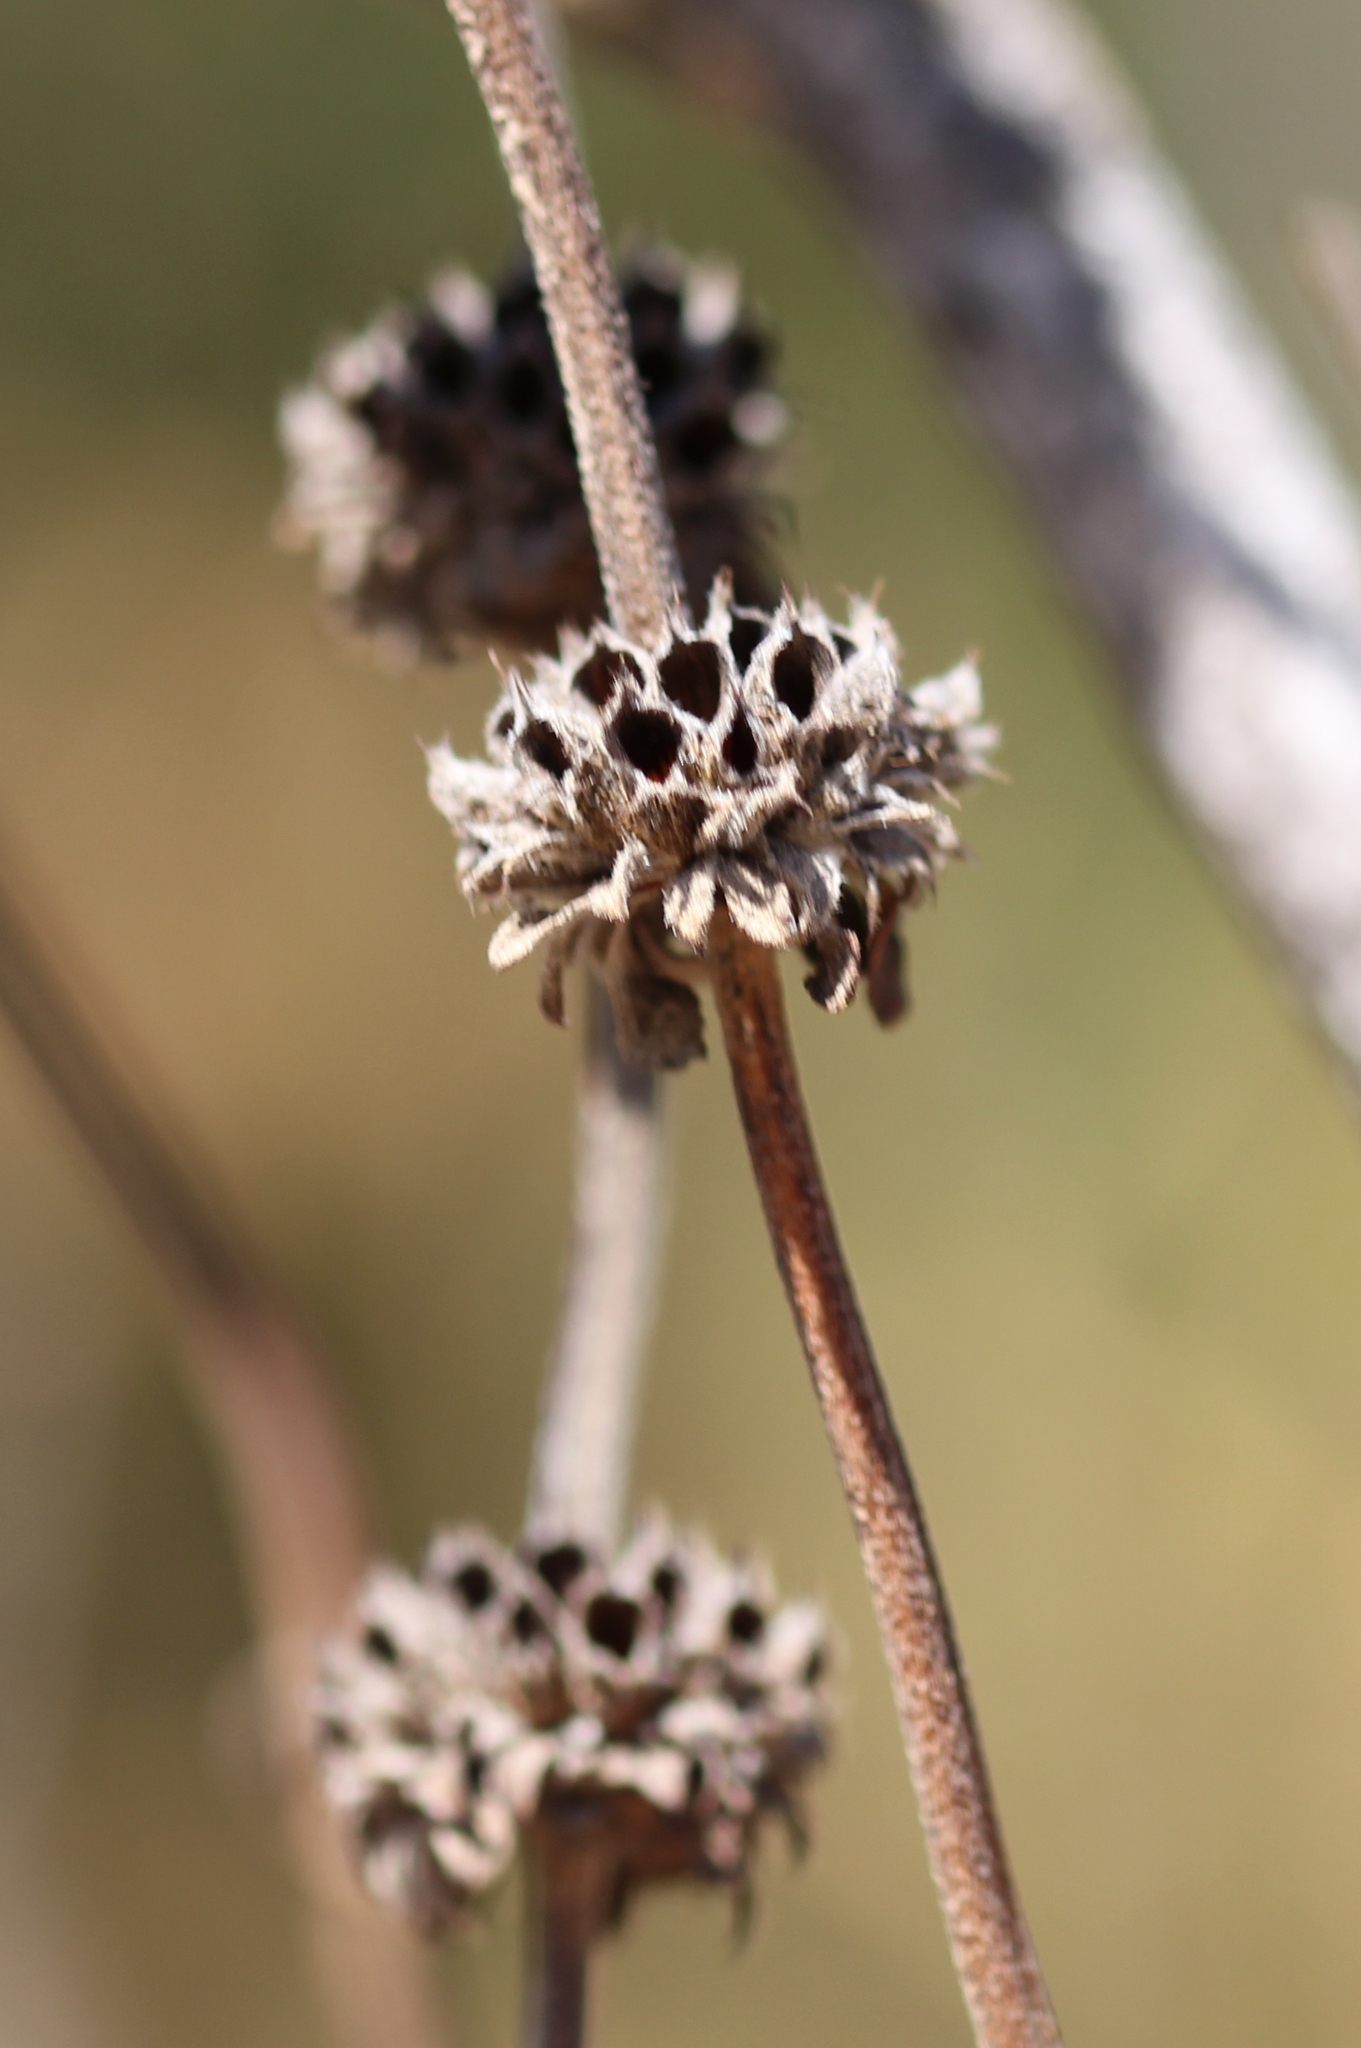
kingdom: Plantae
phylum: Tracheophyta
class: Magnoliopsida
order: Lamiales
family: Lamiaceae
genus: Salvia
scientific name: Salvia mellifera
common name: Black sage
